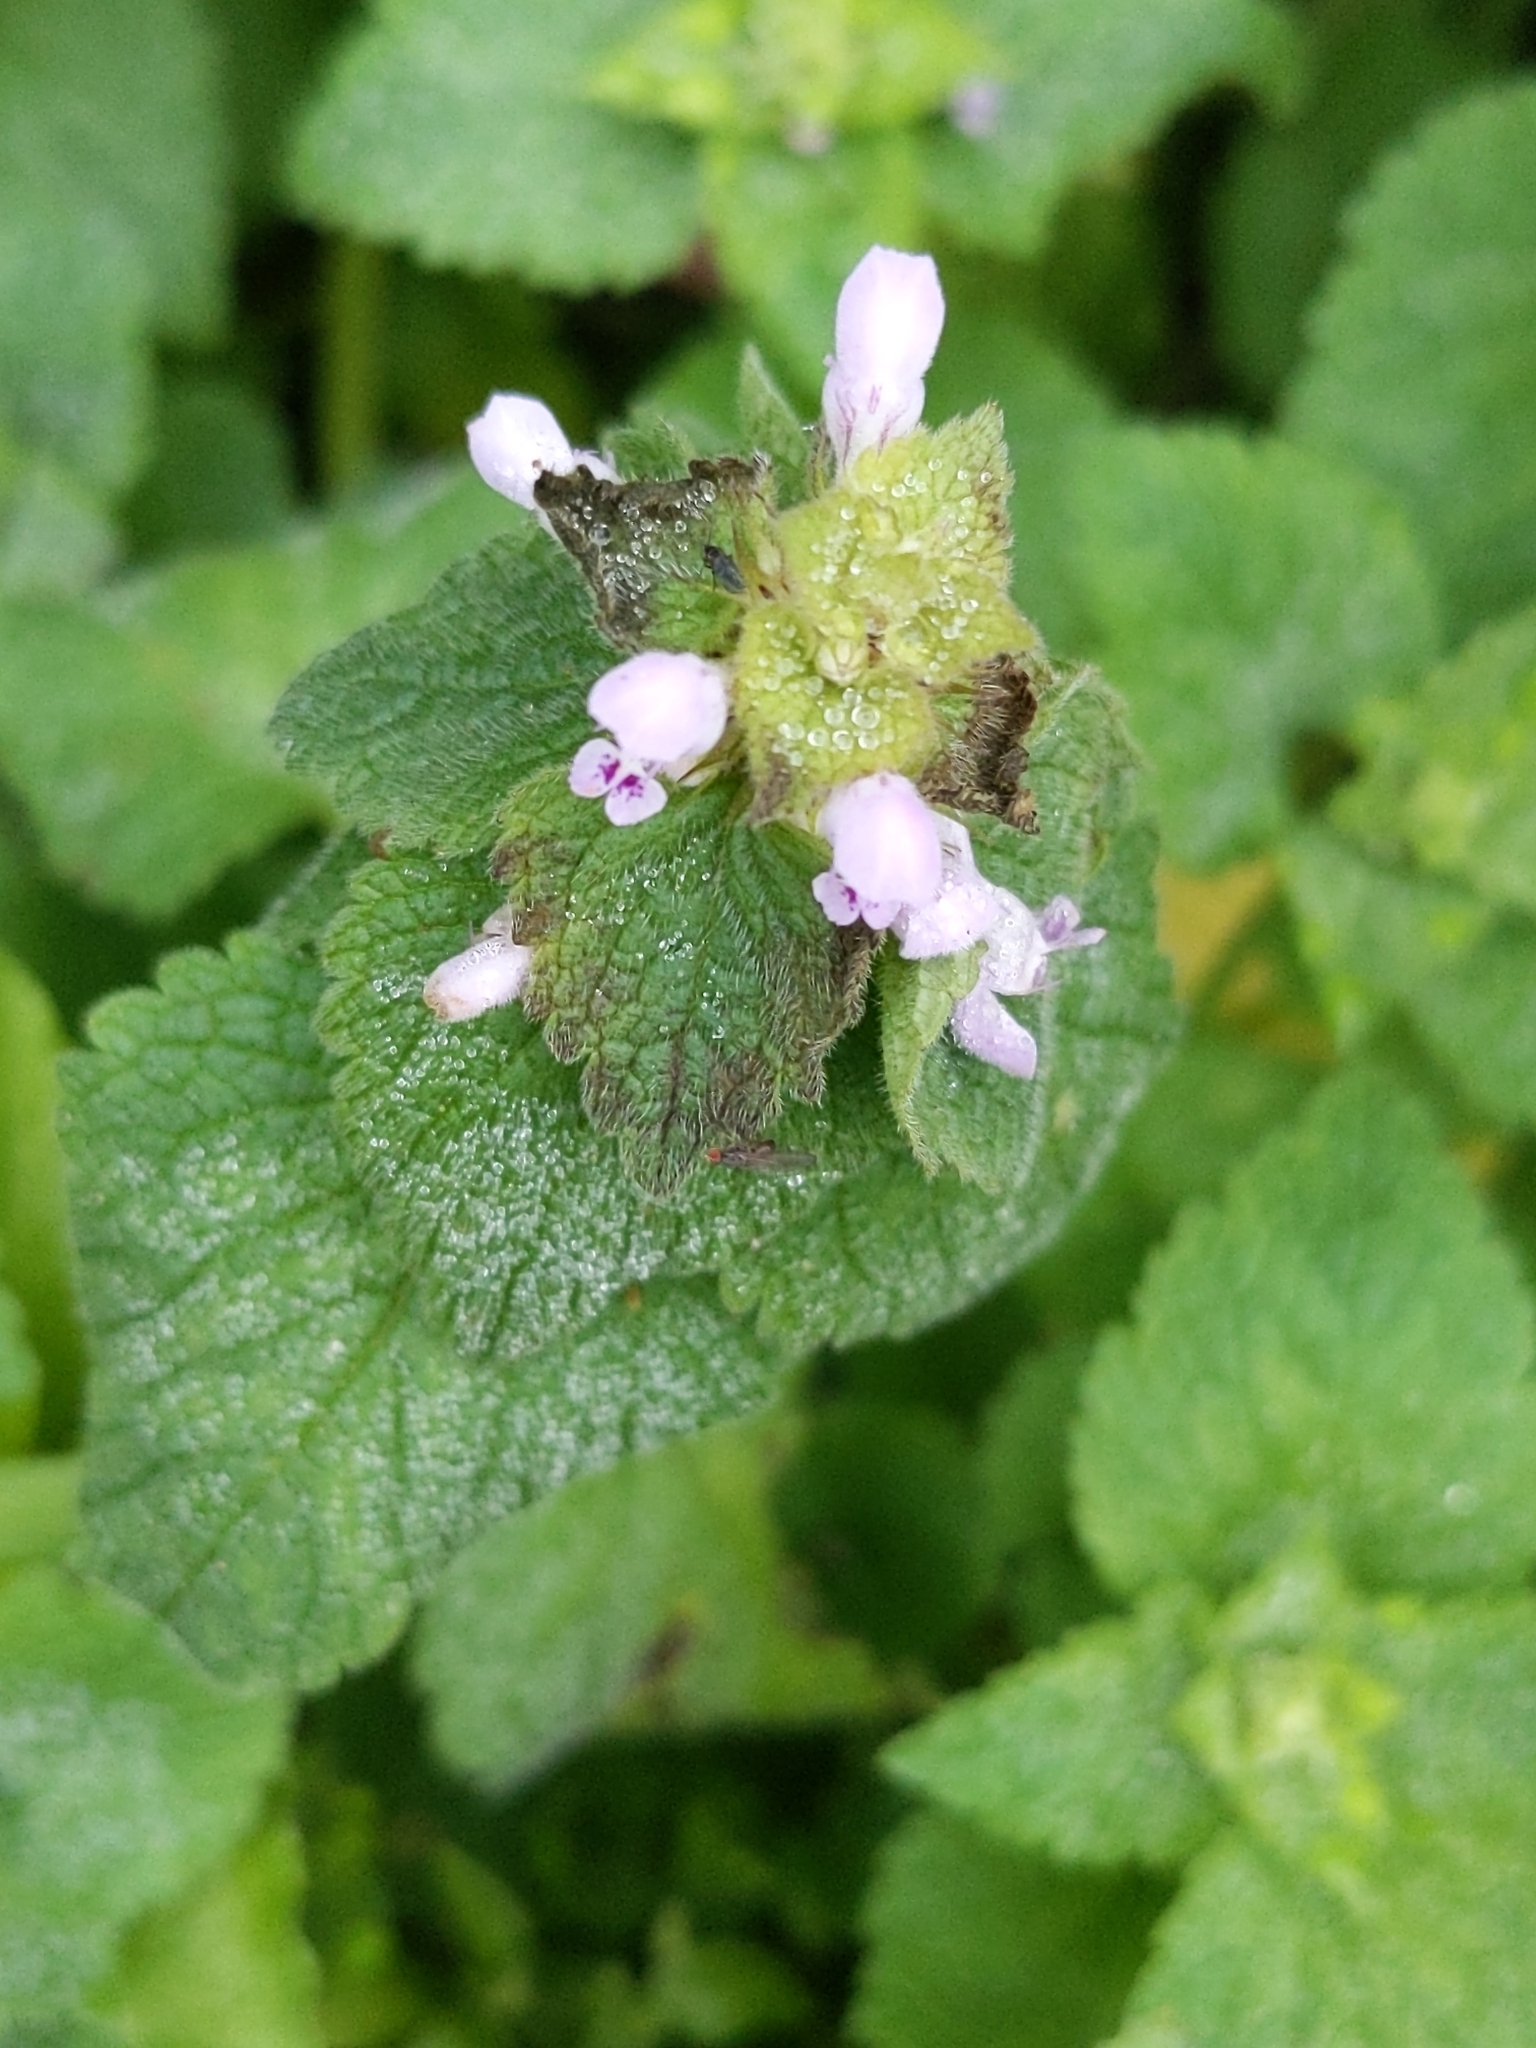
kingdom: Plantae
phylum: Tracheophyta
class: Magnoliopsida
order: Lamiales
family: Lamiaceae
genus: Lamium
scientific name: Lamium purpureum
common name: Red dead-nettle
